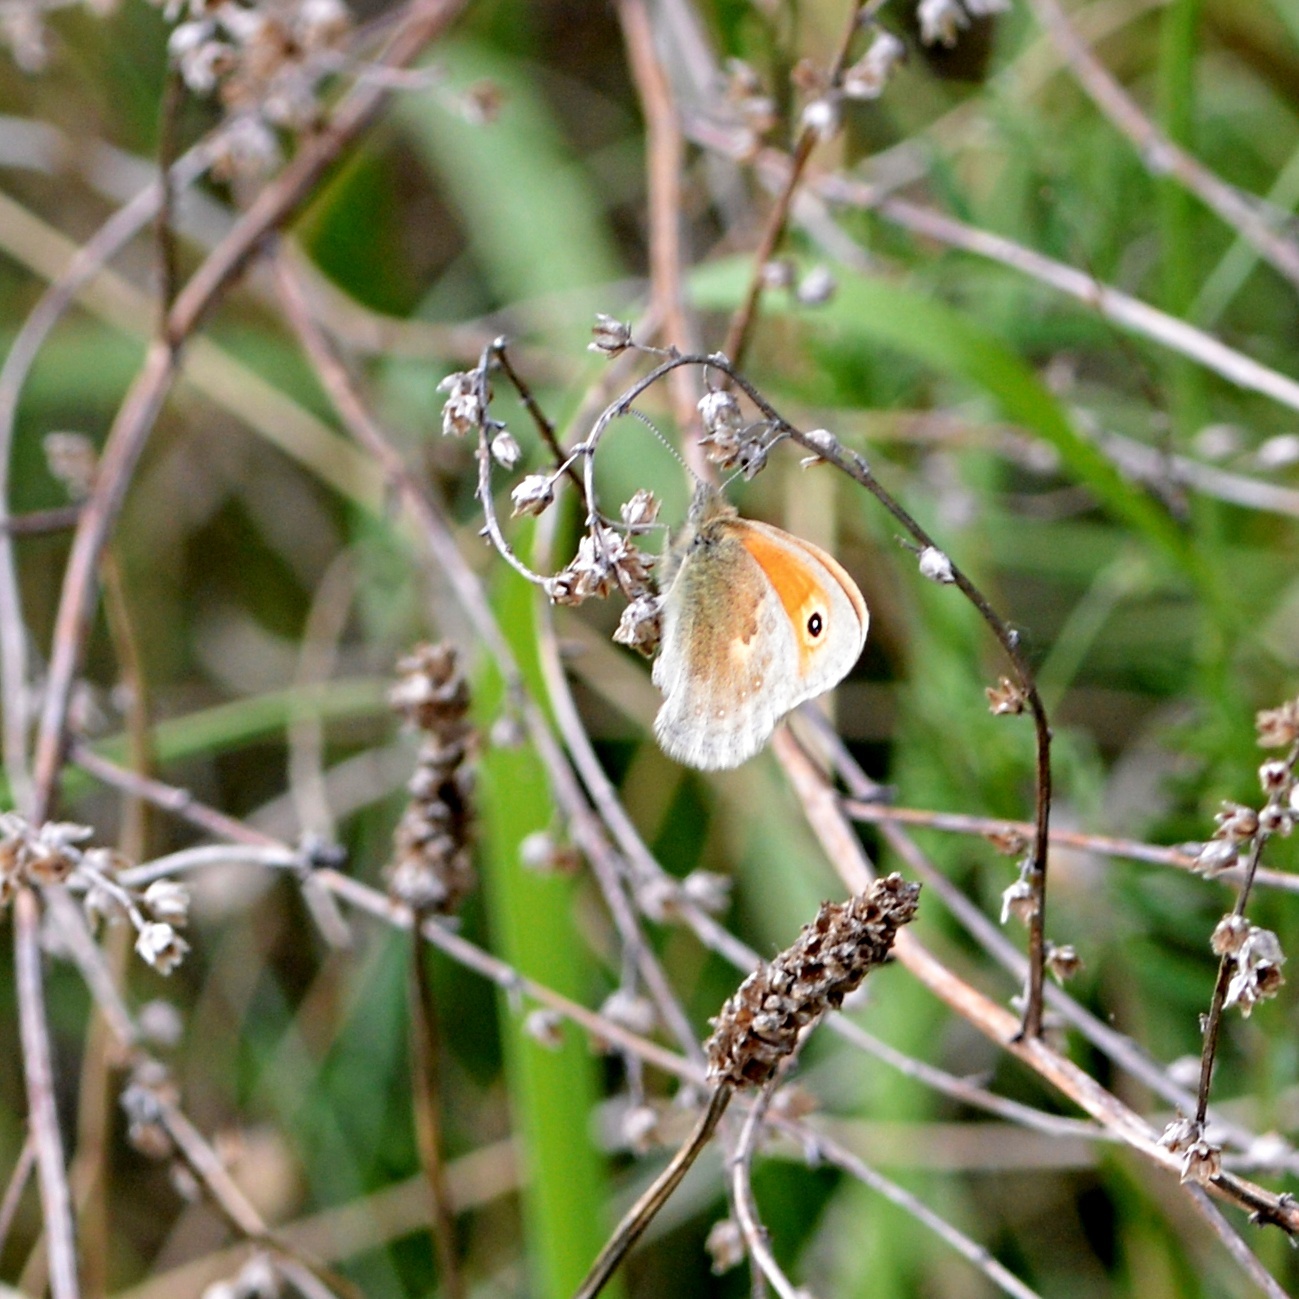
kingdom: Animalia
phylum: Arthropoda
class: Insecta
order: Lepidoptera
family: Nymphalidae
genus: Coenonympha
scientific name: Coenonympha pamphilus
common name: Small heath
